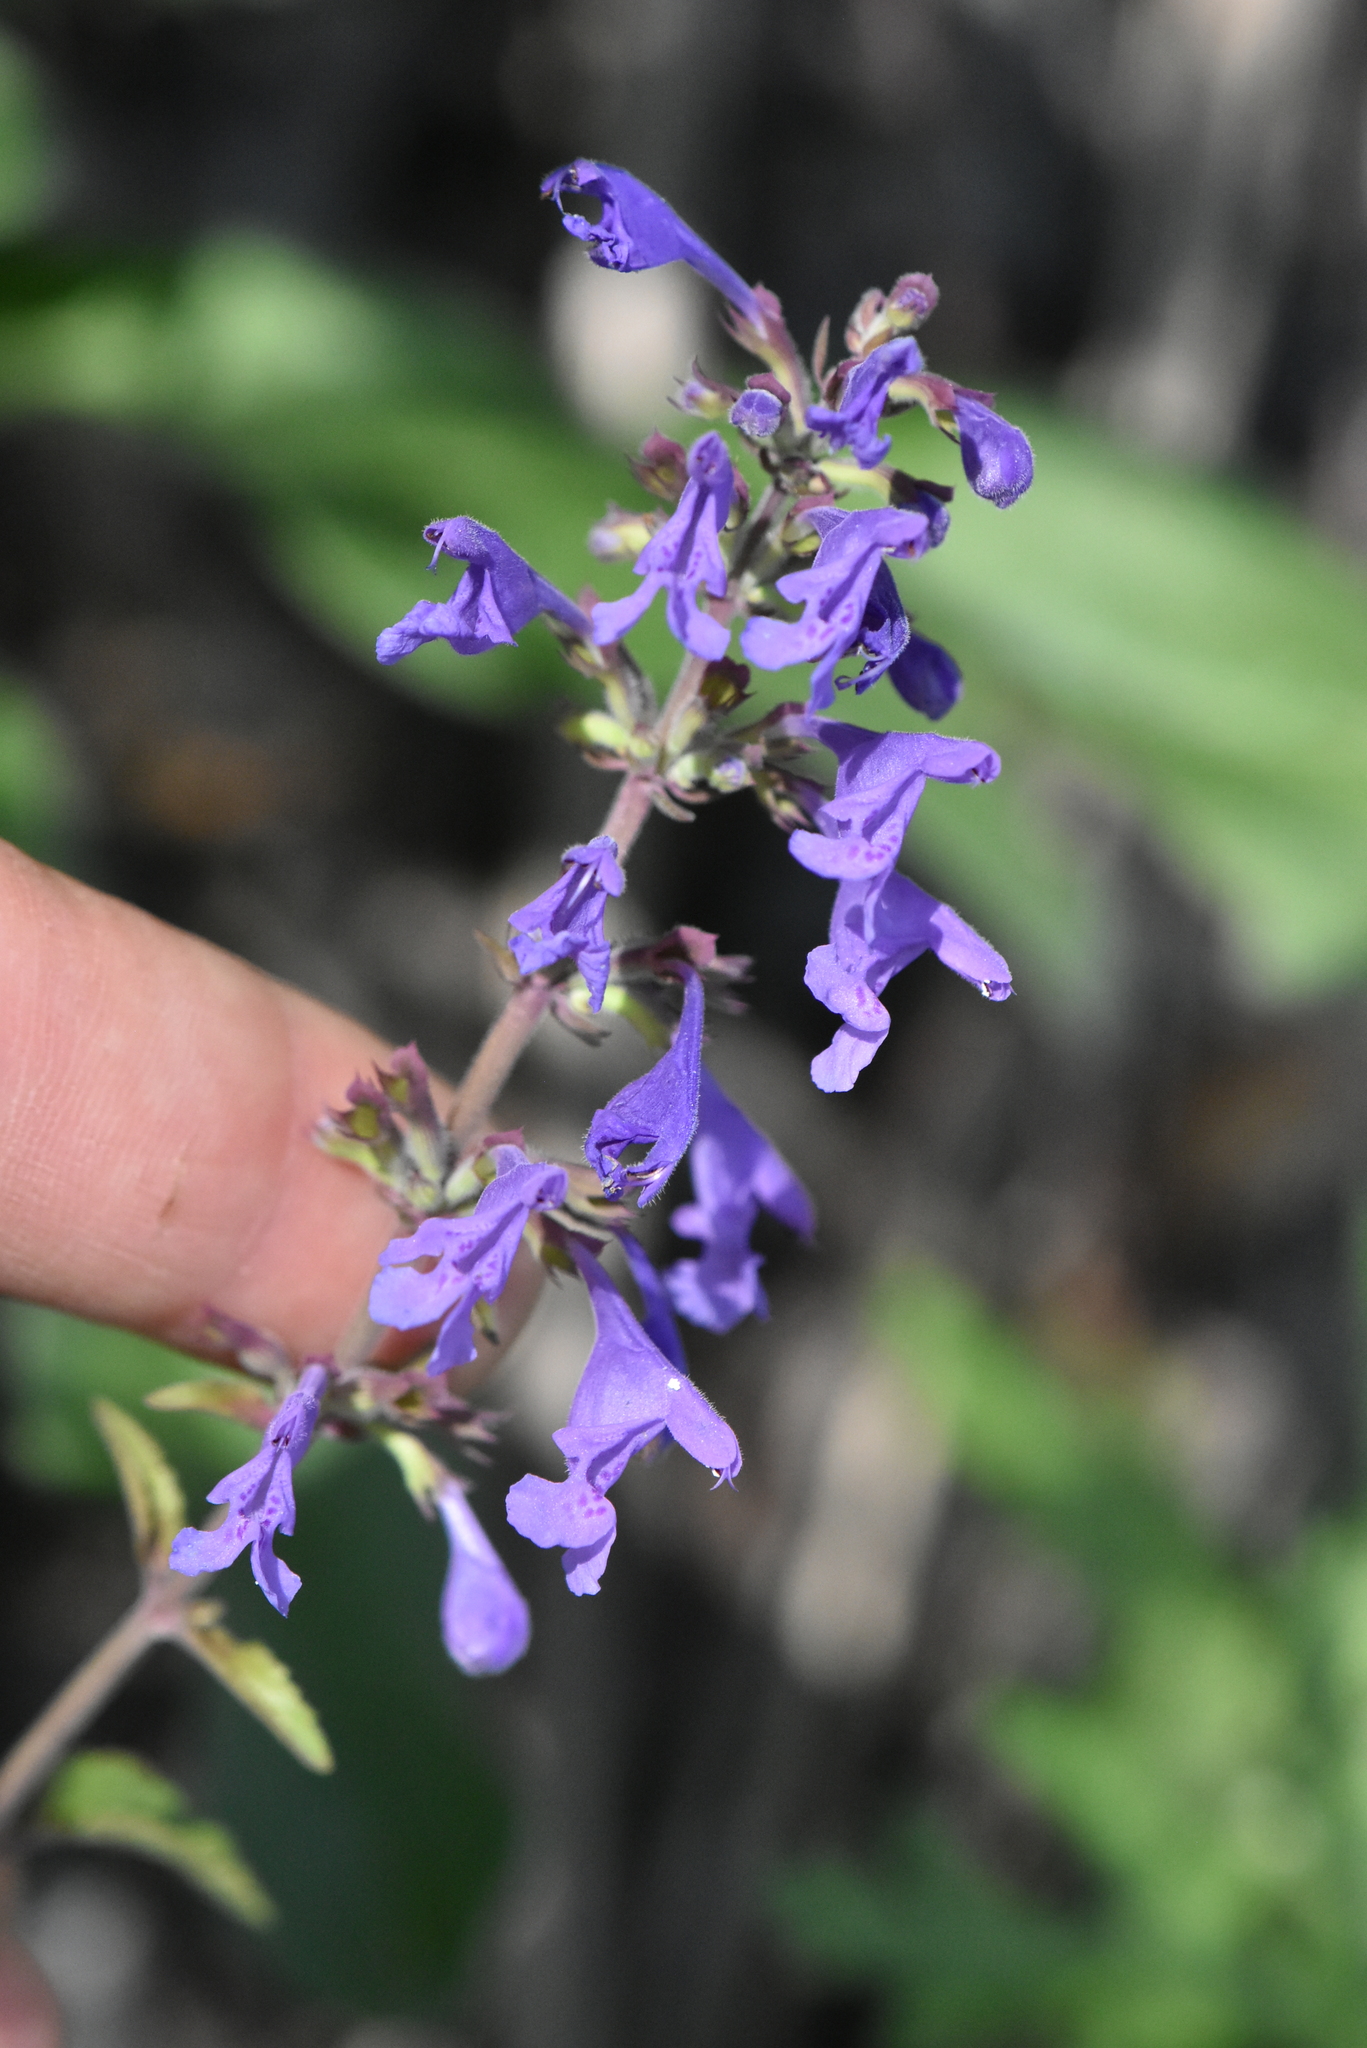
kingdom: Plantae
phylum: Tracheophyta
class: Magnoliopsida
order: Lamiales
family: Lamiaceae
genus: Dracocephalum
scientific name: Dracocephalum nutans
